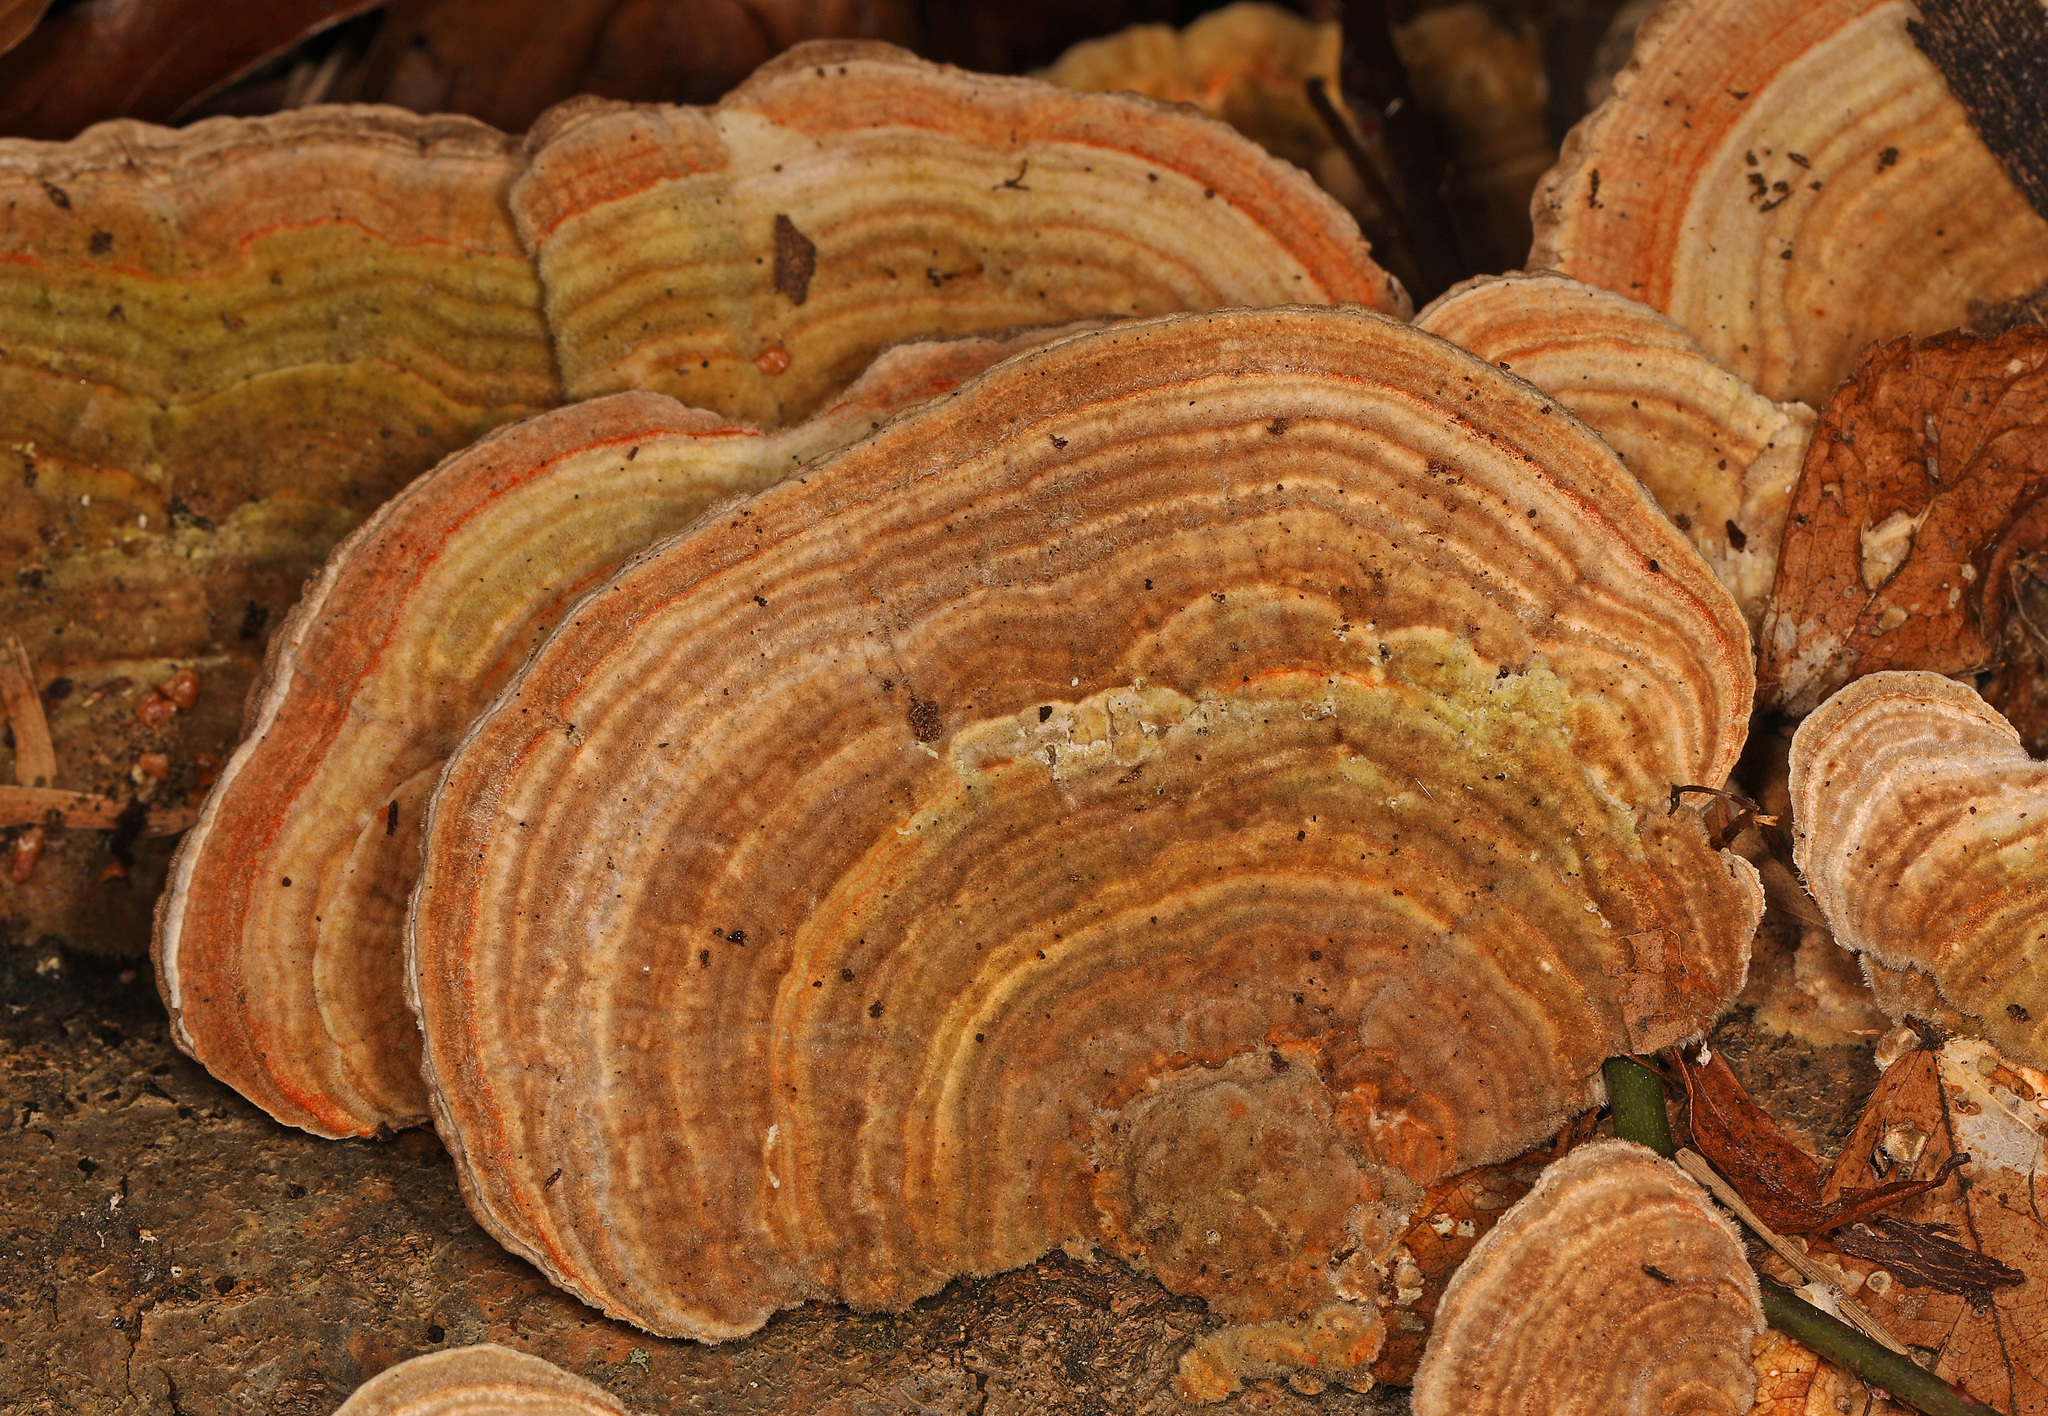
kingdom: Fungi
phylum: Basidiomycota
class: Agaricomycetes
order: Polyporales
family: Polyporaceae
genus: Lenzites
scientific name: Lenzites betulinus
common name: Birch mazegill
